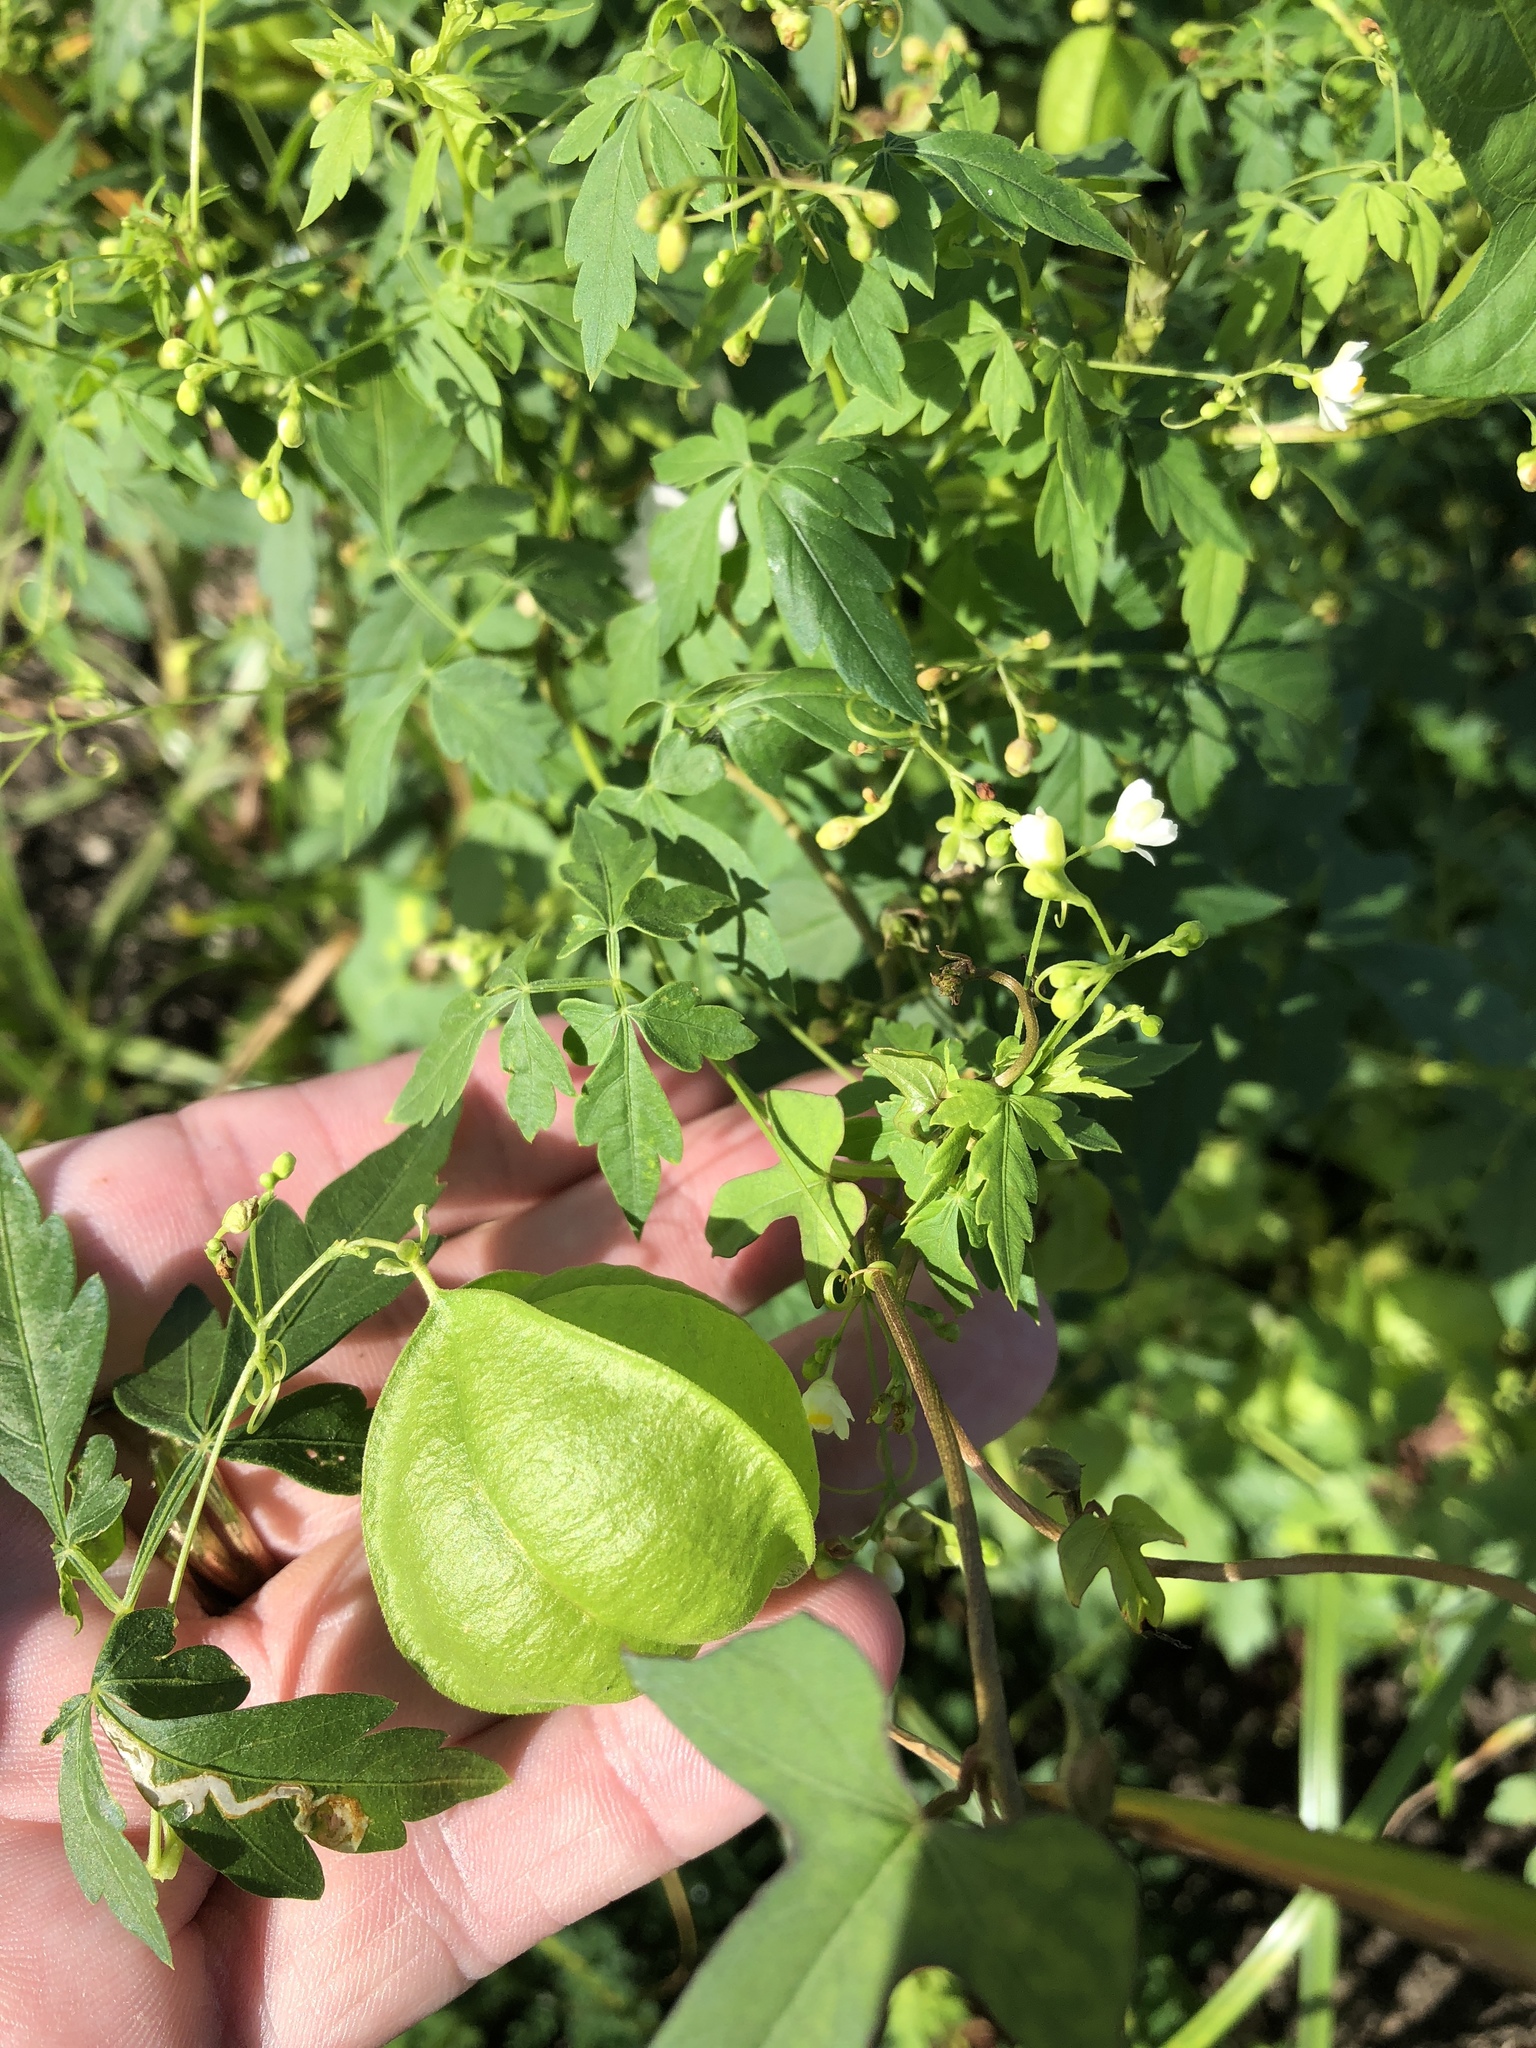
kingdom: Plantae
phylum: Tracheophyta
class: Magnoliopsida
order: Sapindales
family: Sapindaceae
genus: Cardiospermum
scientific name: Cardiospermum halicacabum
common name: Balloon vine
